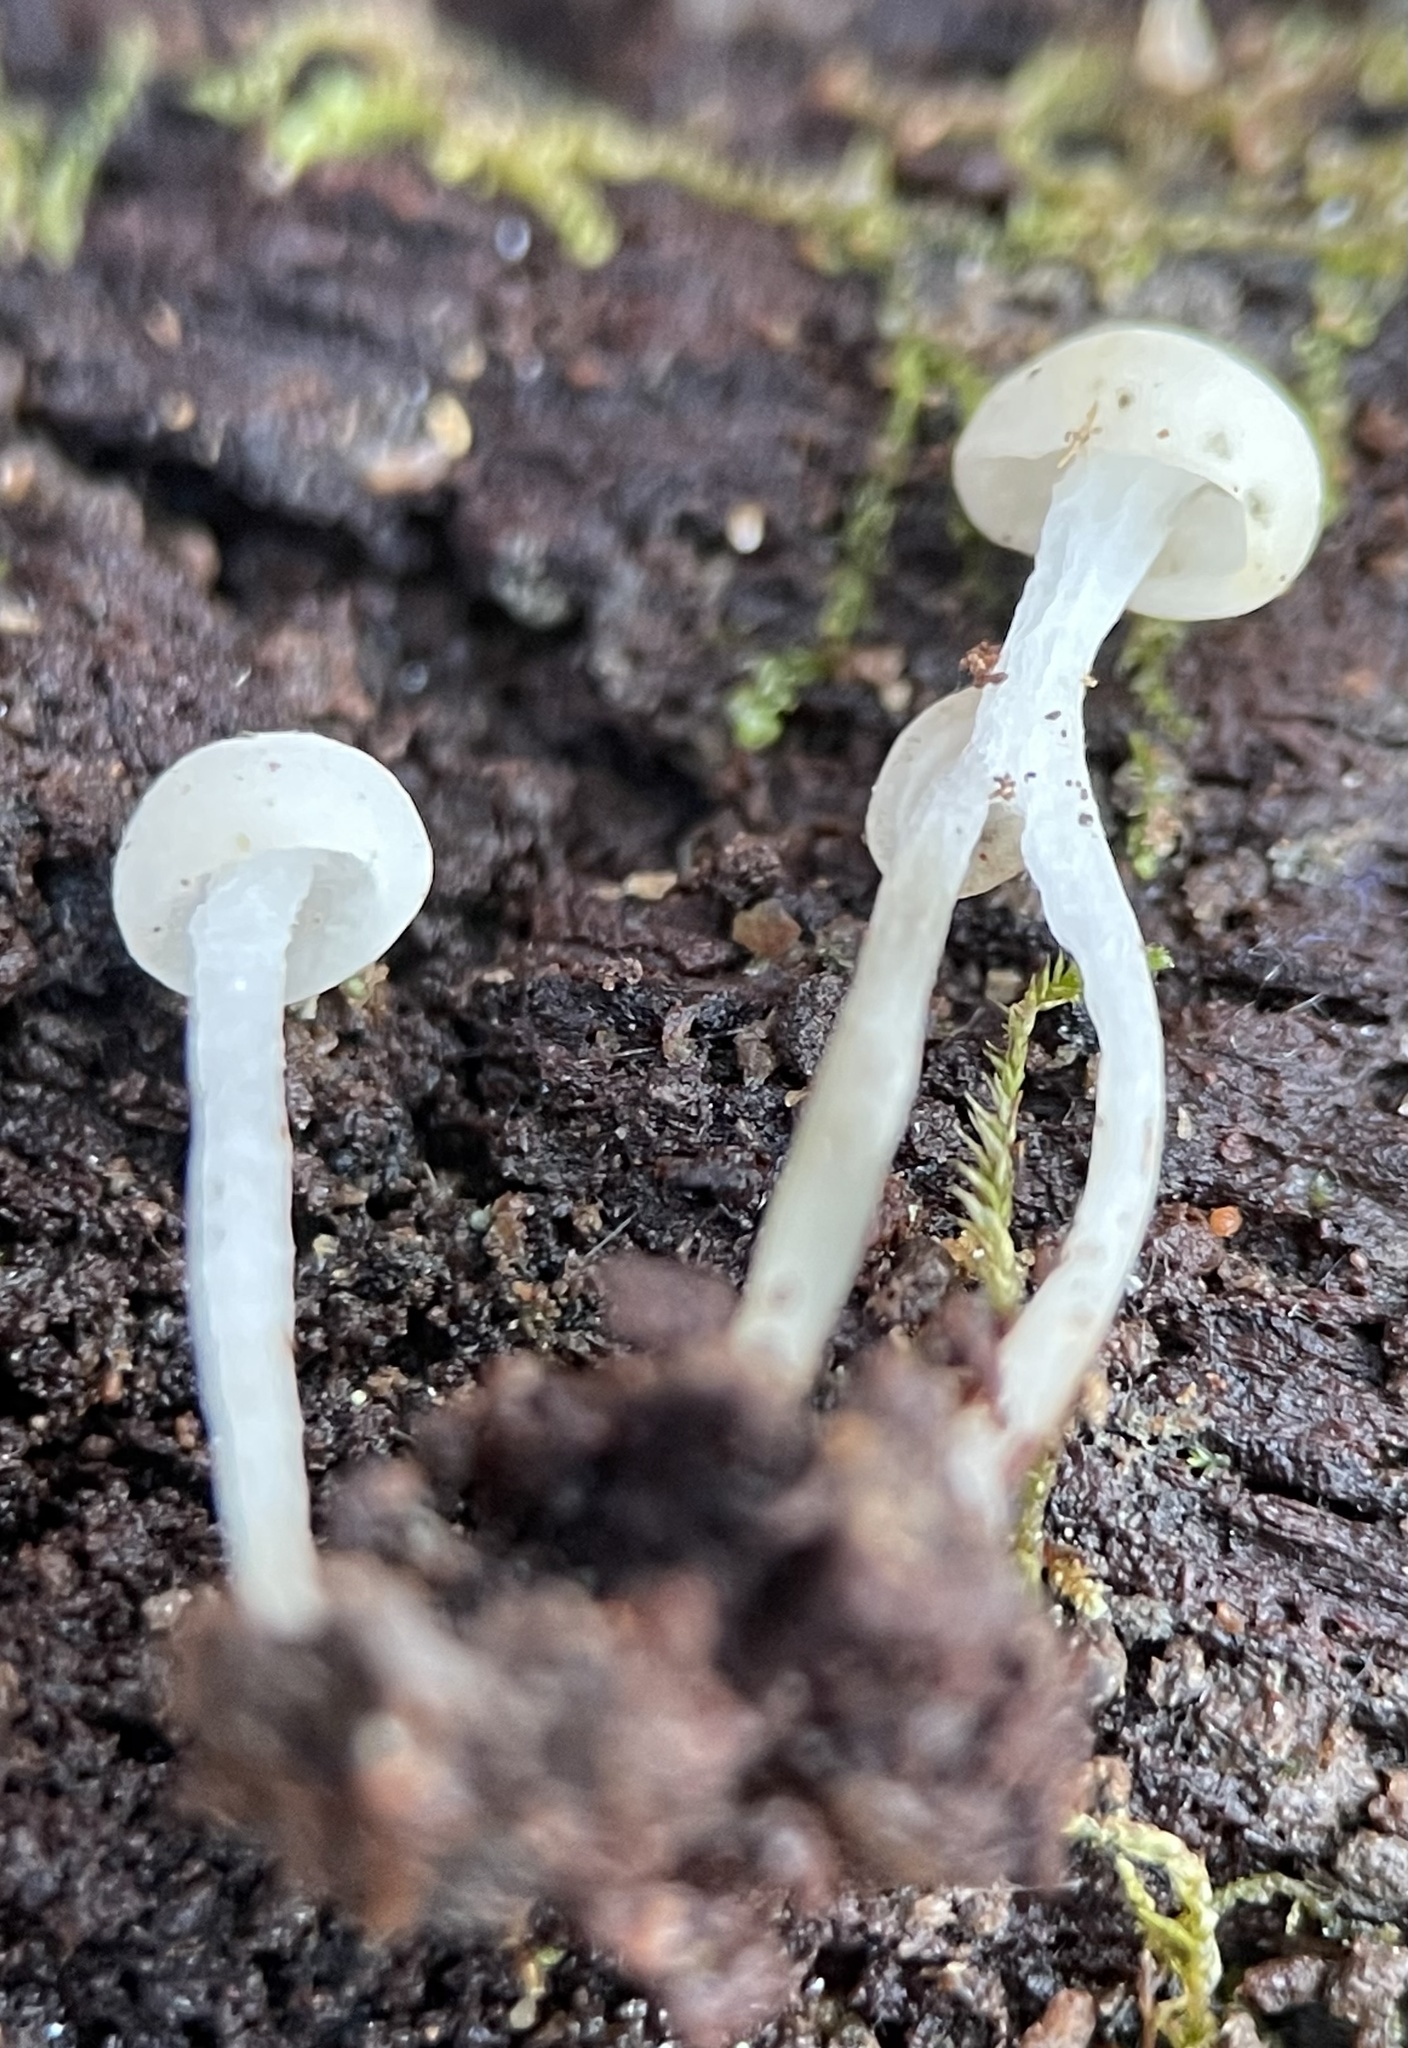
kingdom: Fungi
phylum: Ascomycota
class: Leotiomycetes
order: Helotiales
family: Tricladiaceae
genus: Cudoniella
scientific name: Cudoniella acicularis
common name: Oak pin
